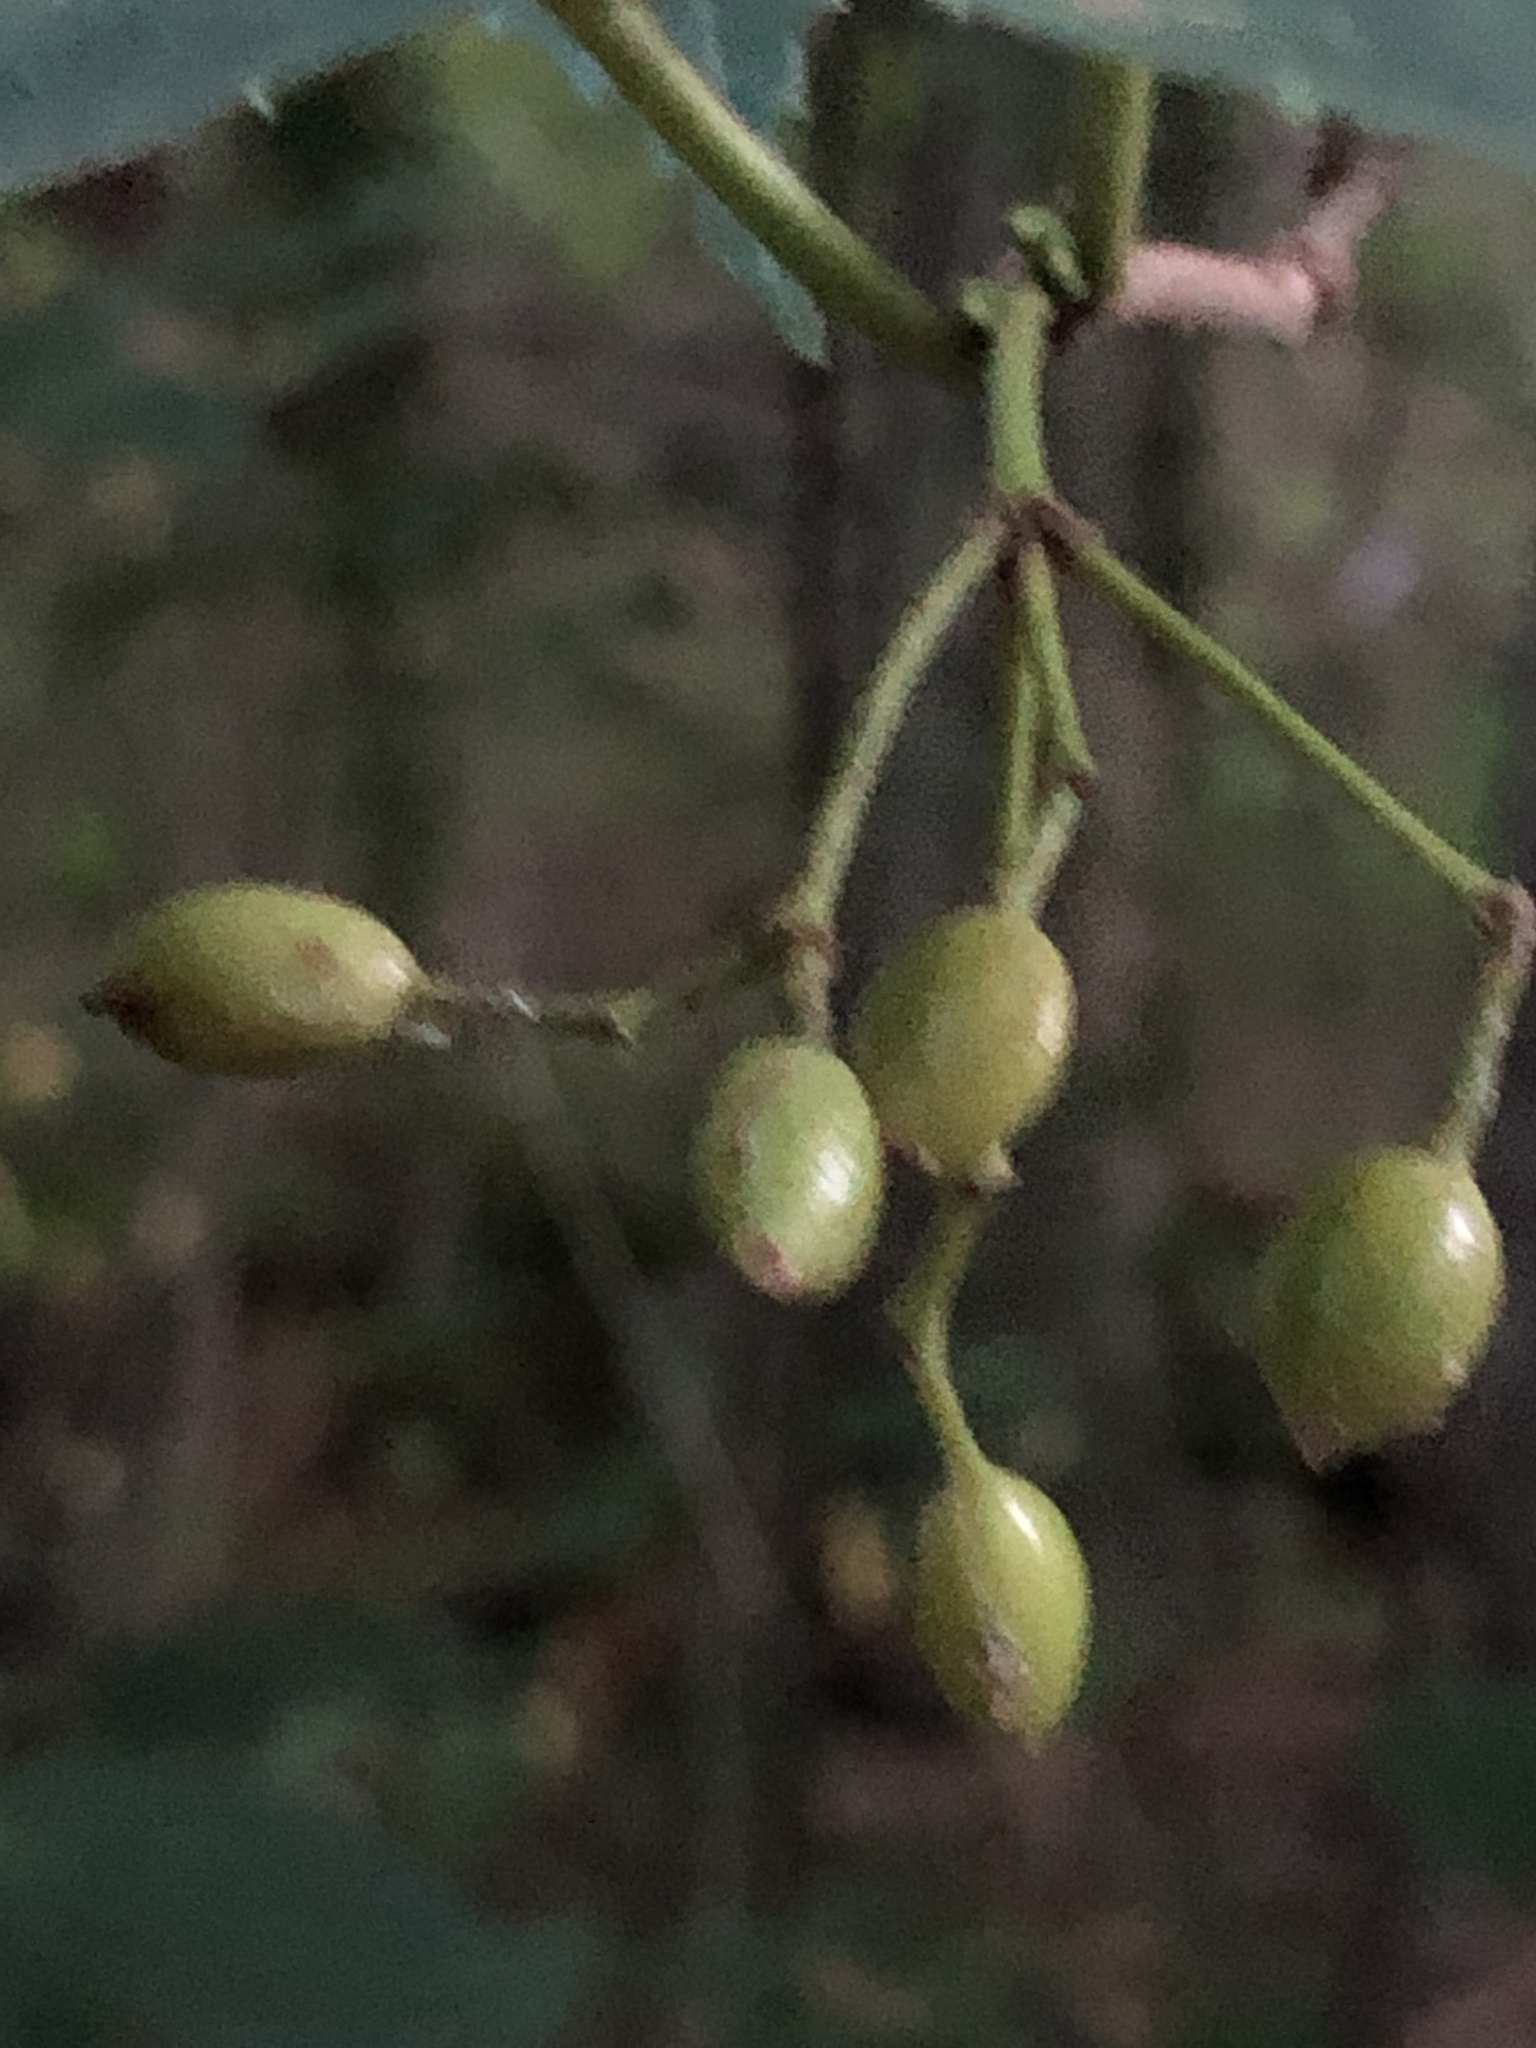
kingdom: Plantae
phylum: Tracheophyta
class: Magnoliopsida
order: Dipsacales
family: Viburnaceae
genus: Viburnum
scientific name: Viburnum setigerum
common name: Tea viburnum
